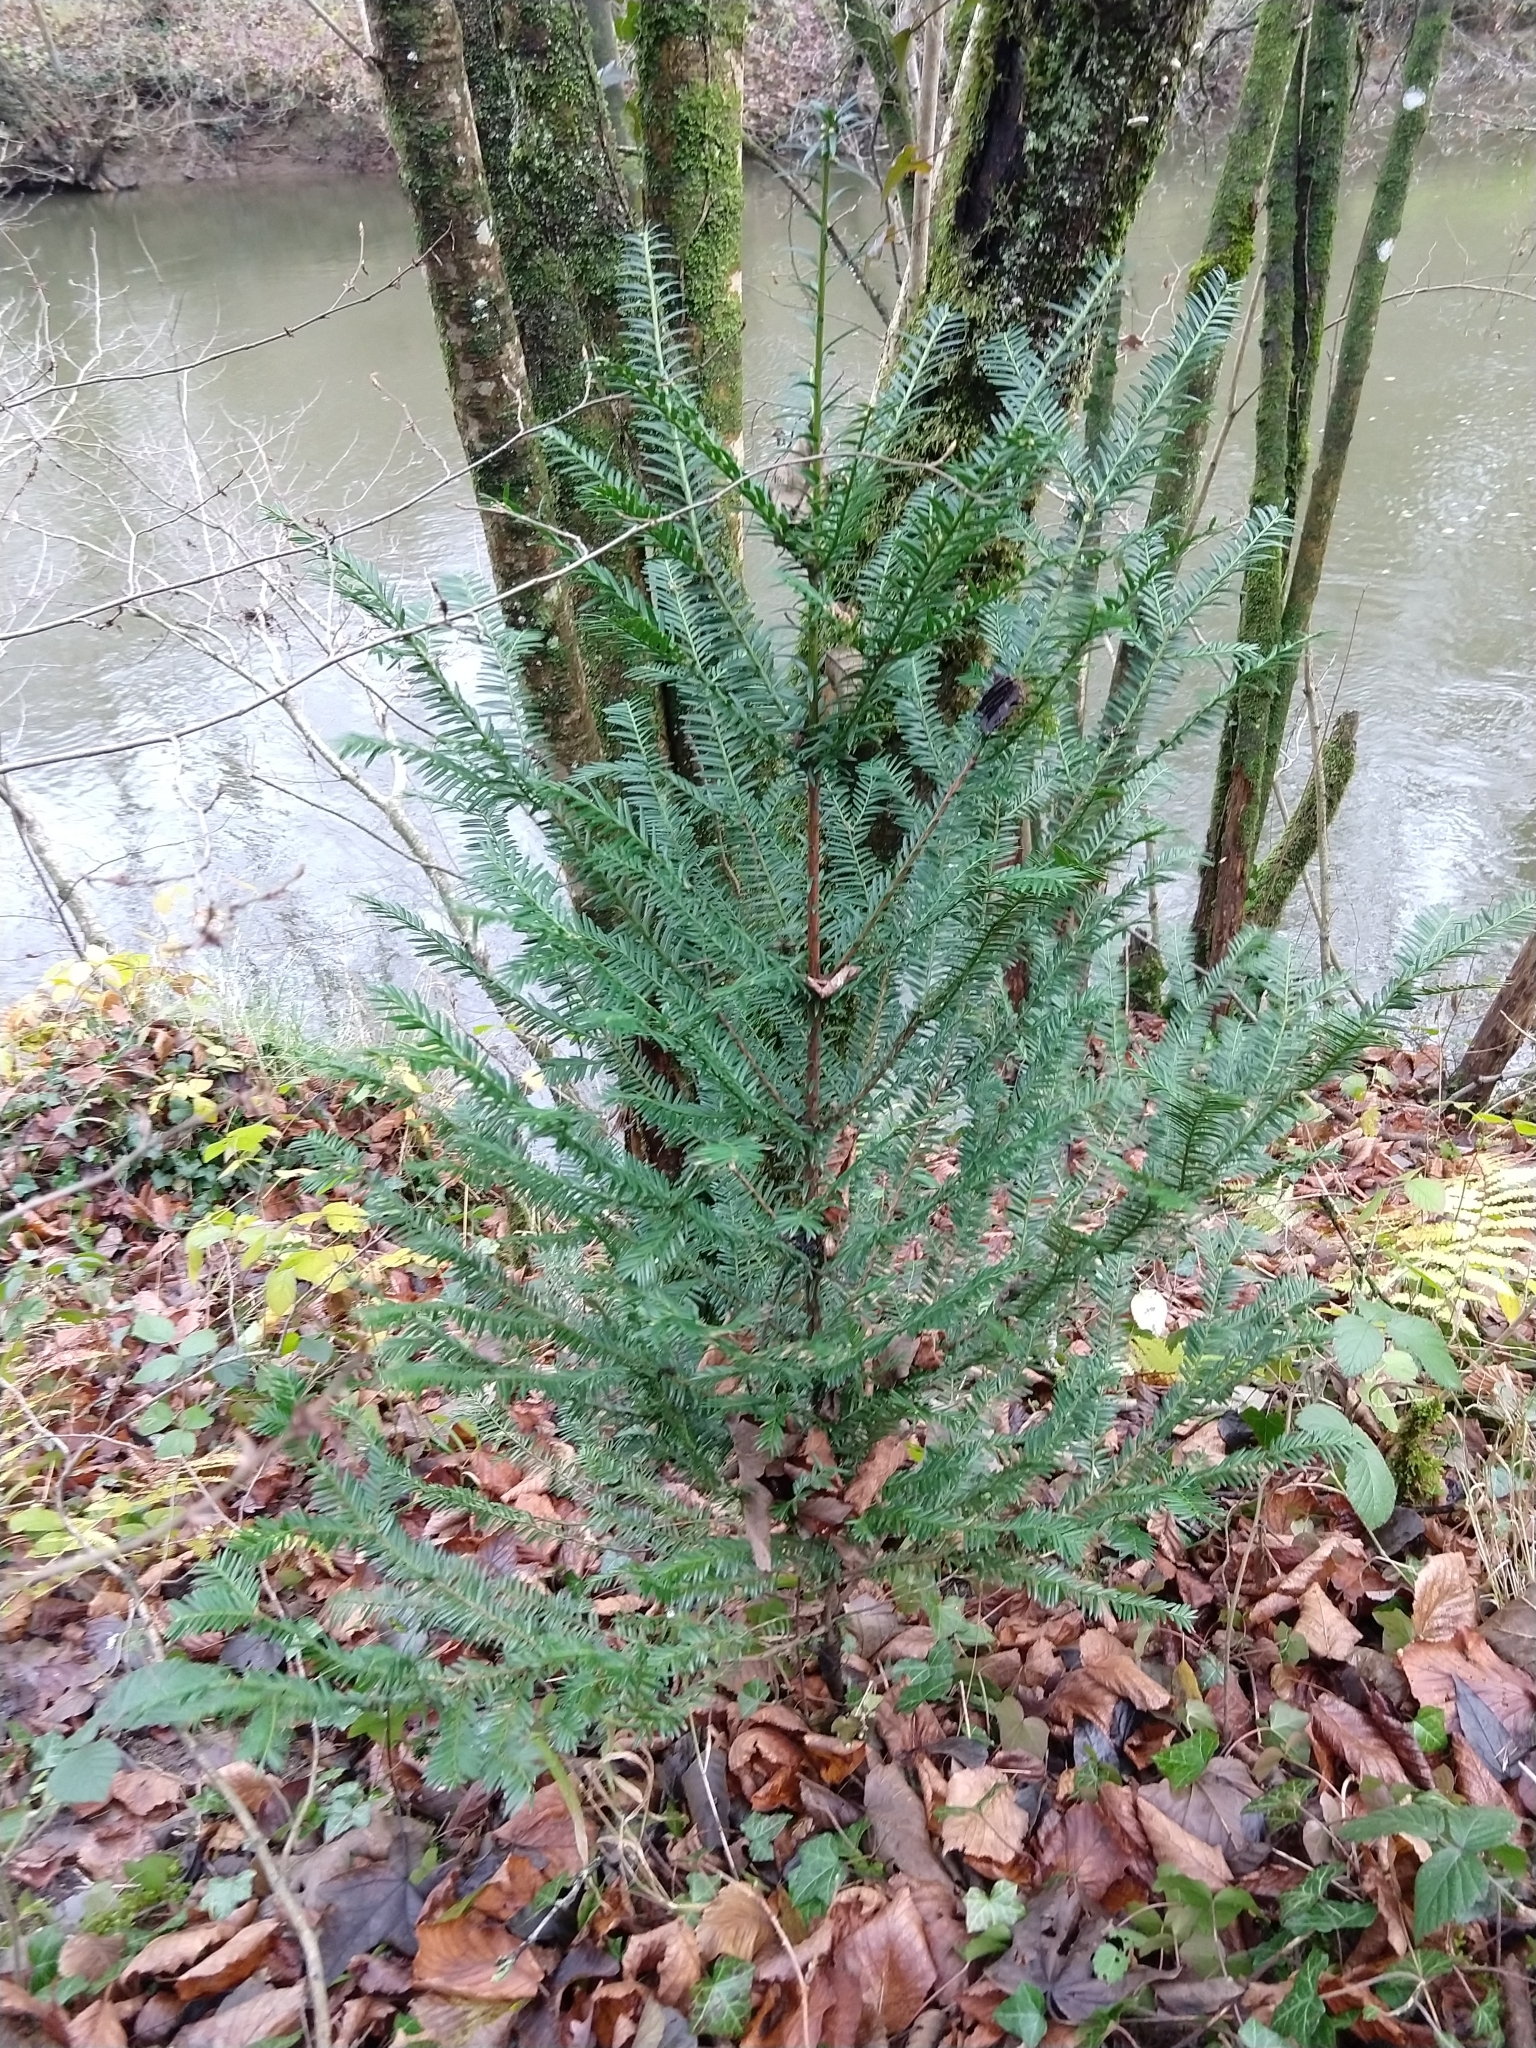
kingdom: Plantae
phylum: Tracheophyta
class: Pinopsida
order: Pinales
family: Taxaceae
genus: Taxus
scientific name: Taxus baccata
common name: Yew
